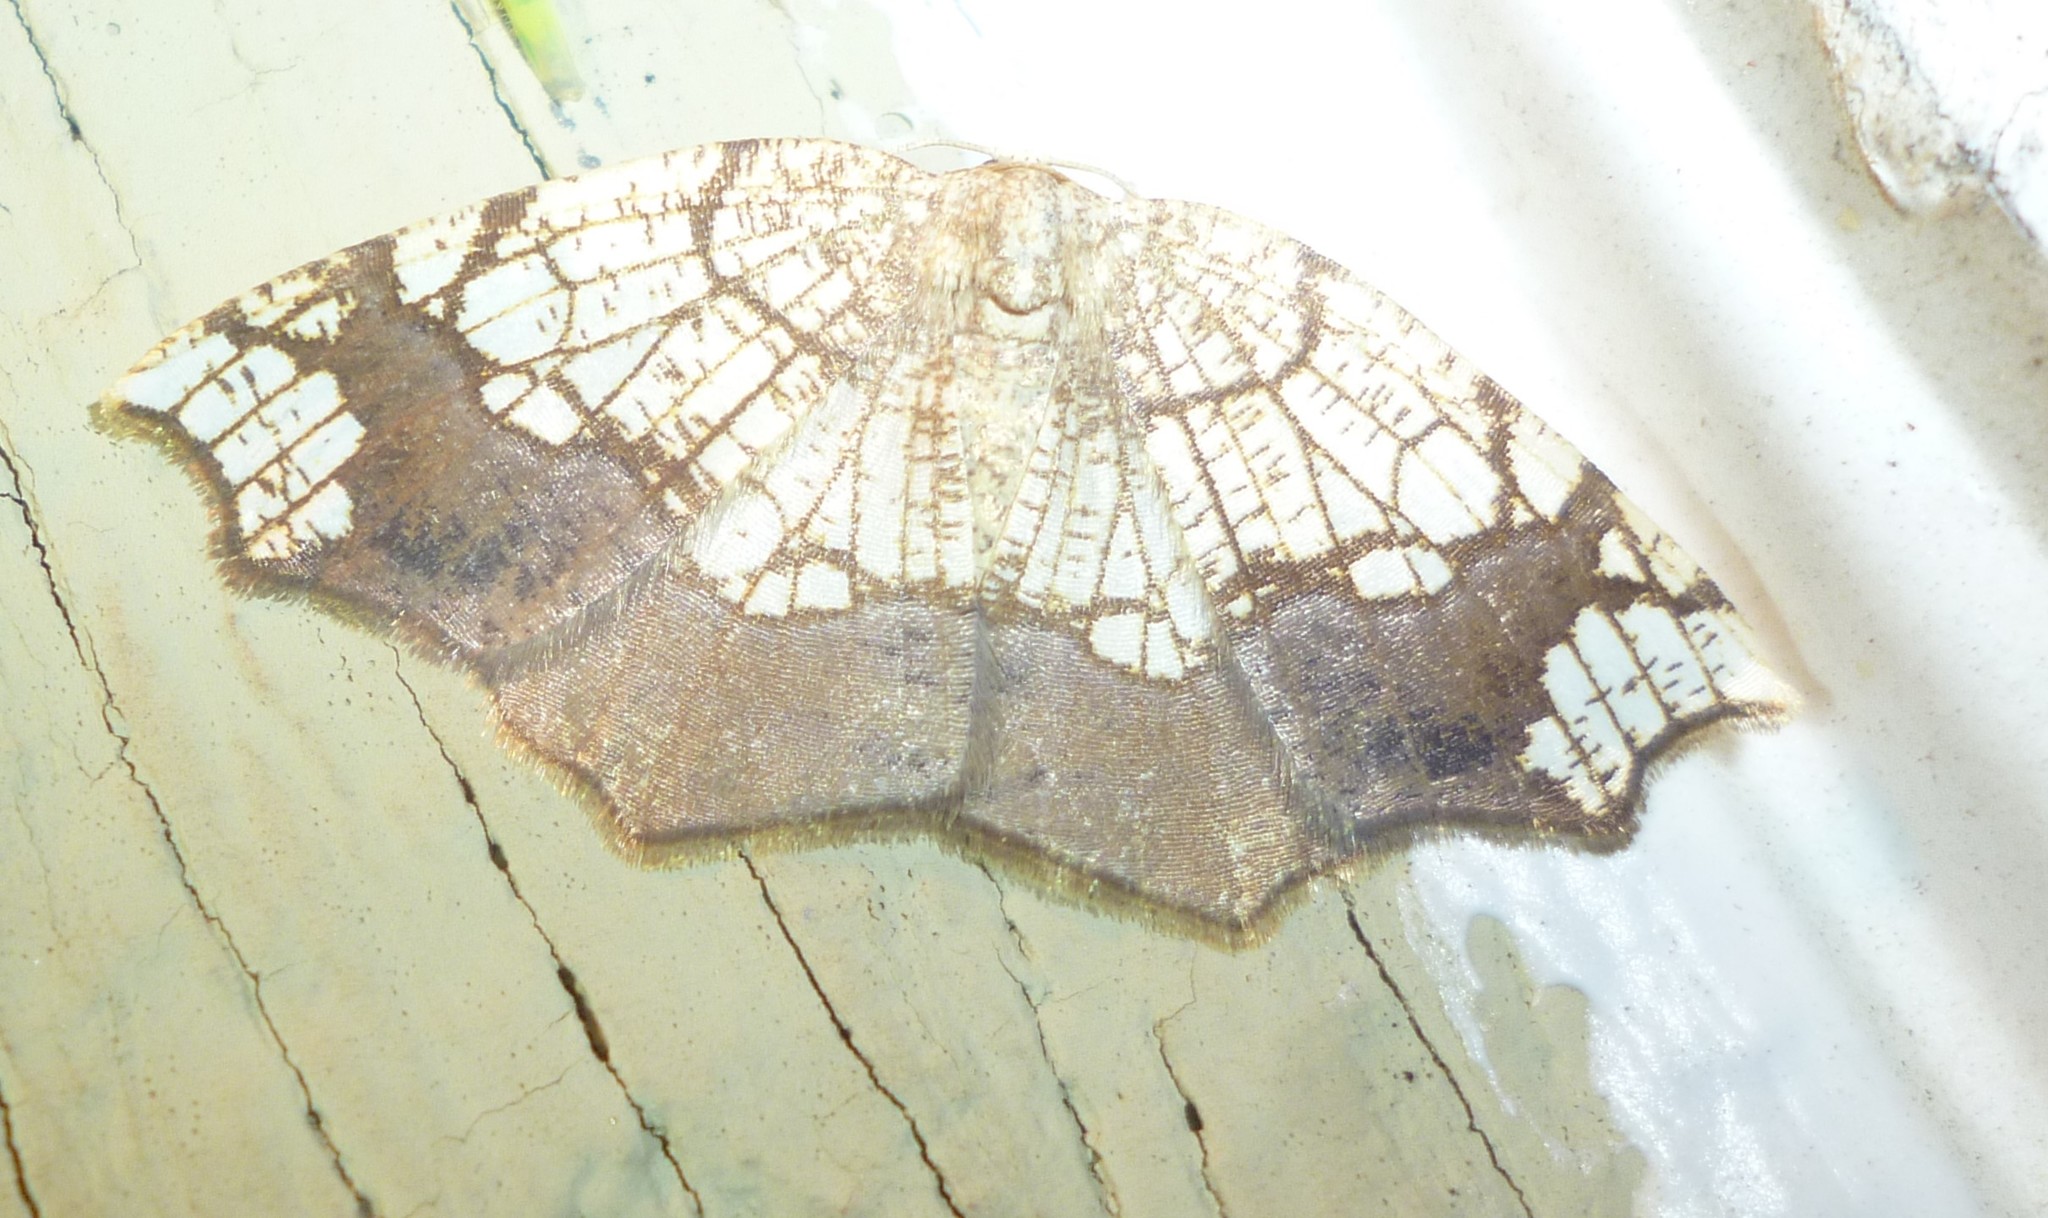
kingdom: Animalia
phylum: Arthropoda
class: Insecta
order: Lepidoptera
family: Geometridae
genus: Nematocampa
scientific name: Nematocampa resistaria
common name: Horned spanworm moth
